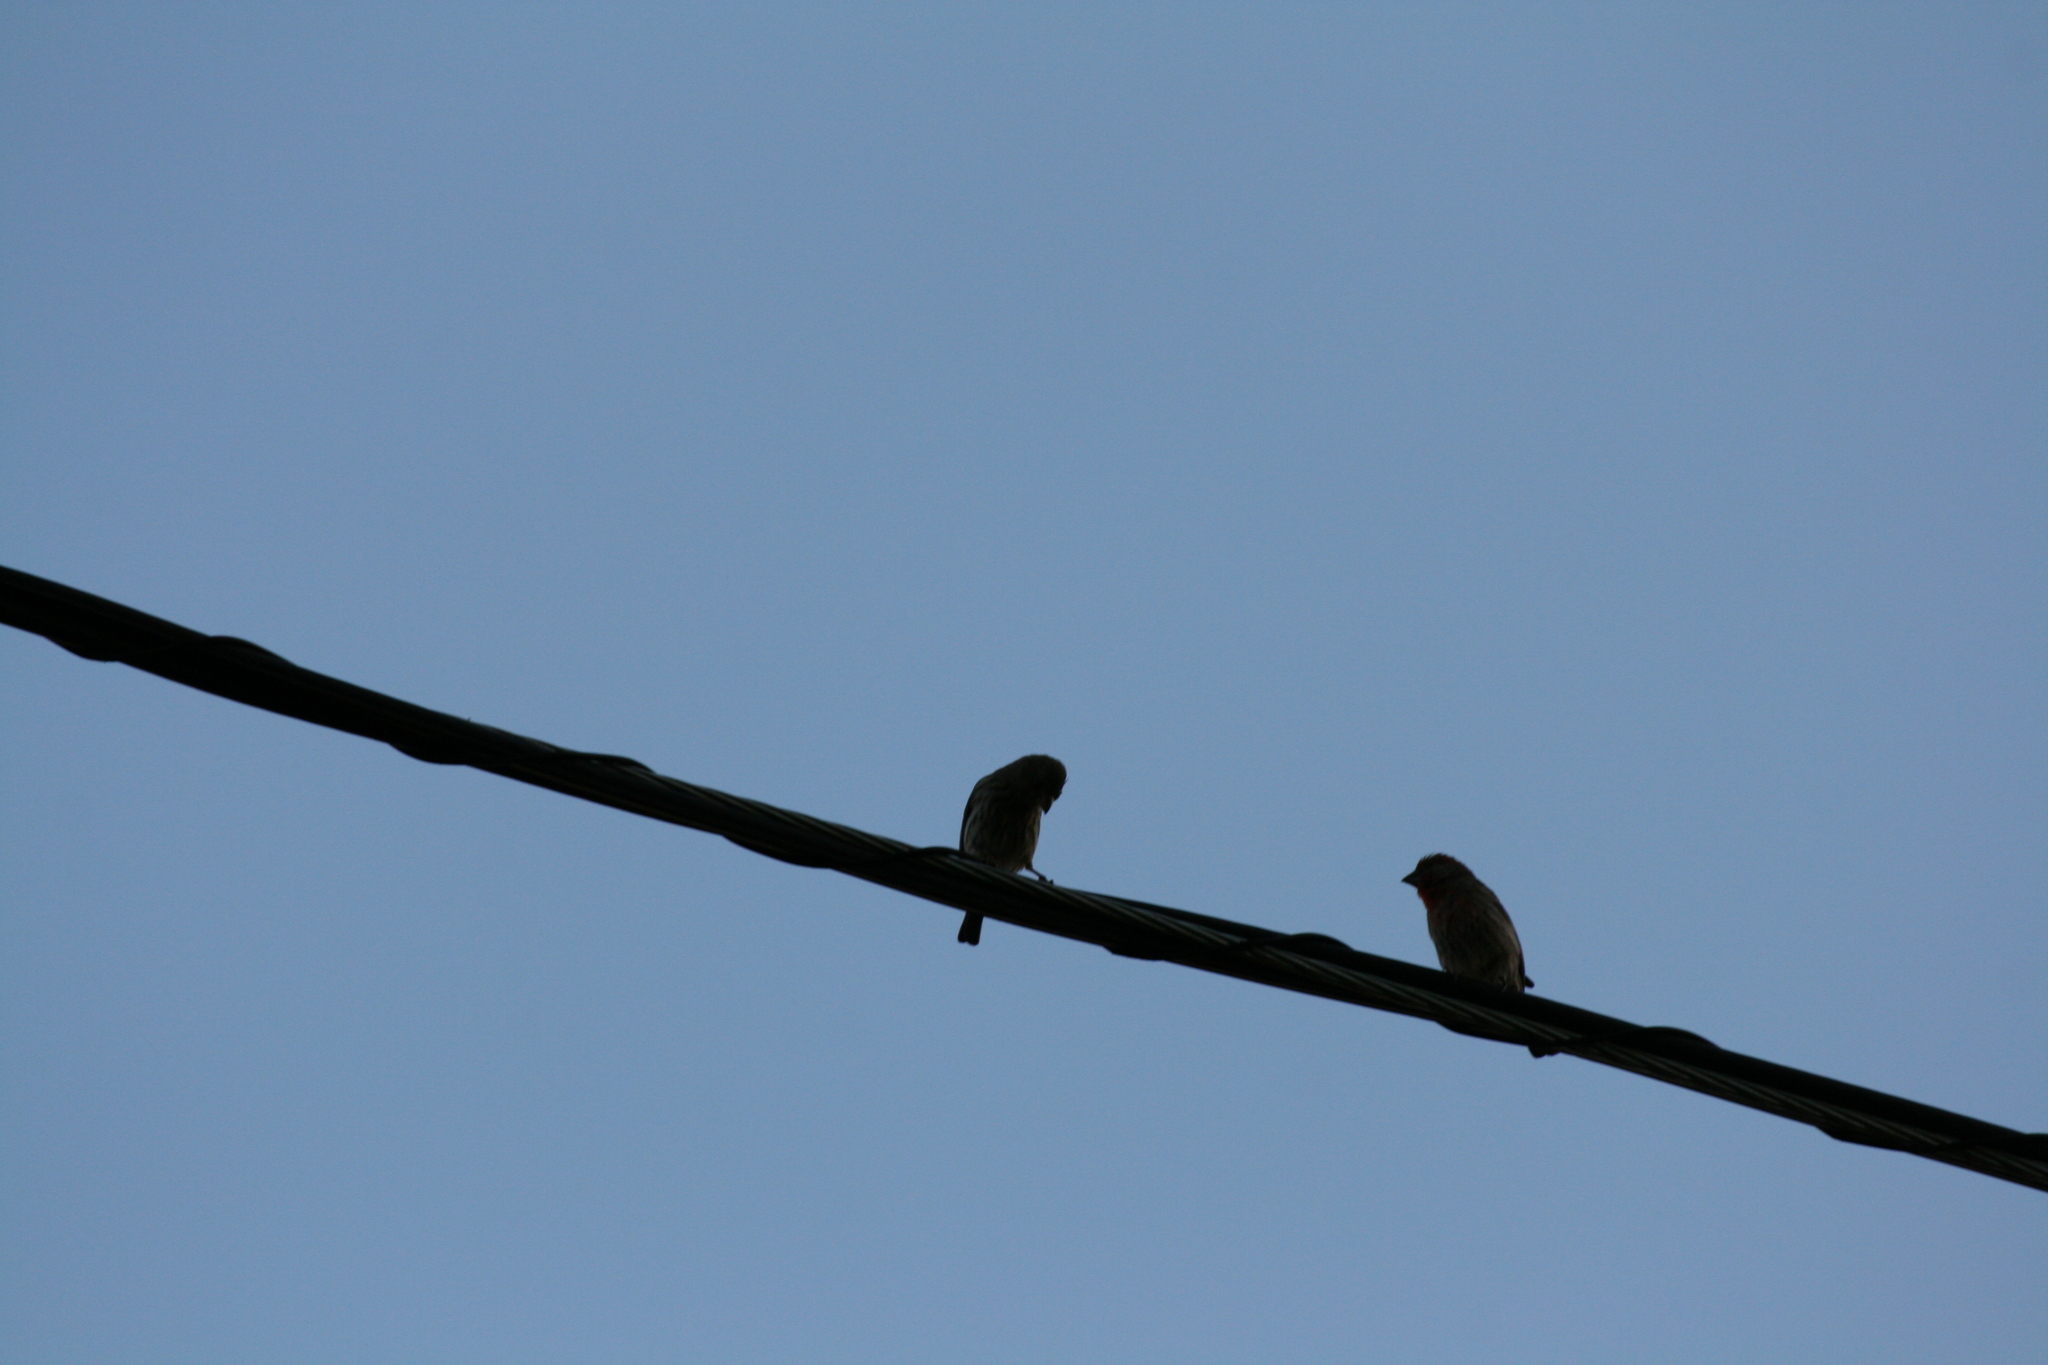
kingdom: Animalia
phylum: Chordata
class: Aves
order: Passeriformes
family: Fringillidae
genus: Haemorhous
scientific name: Haemorhous mexicanus
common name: House finch
